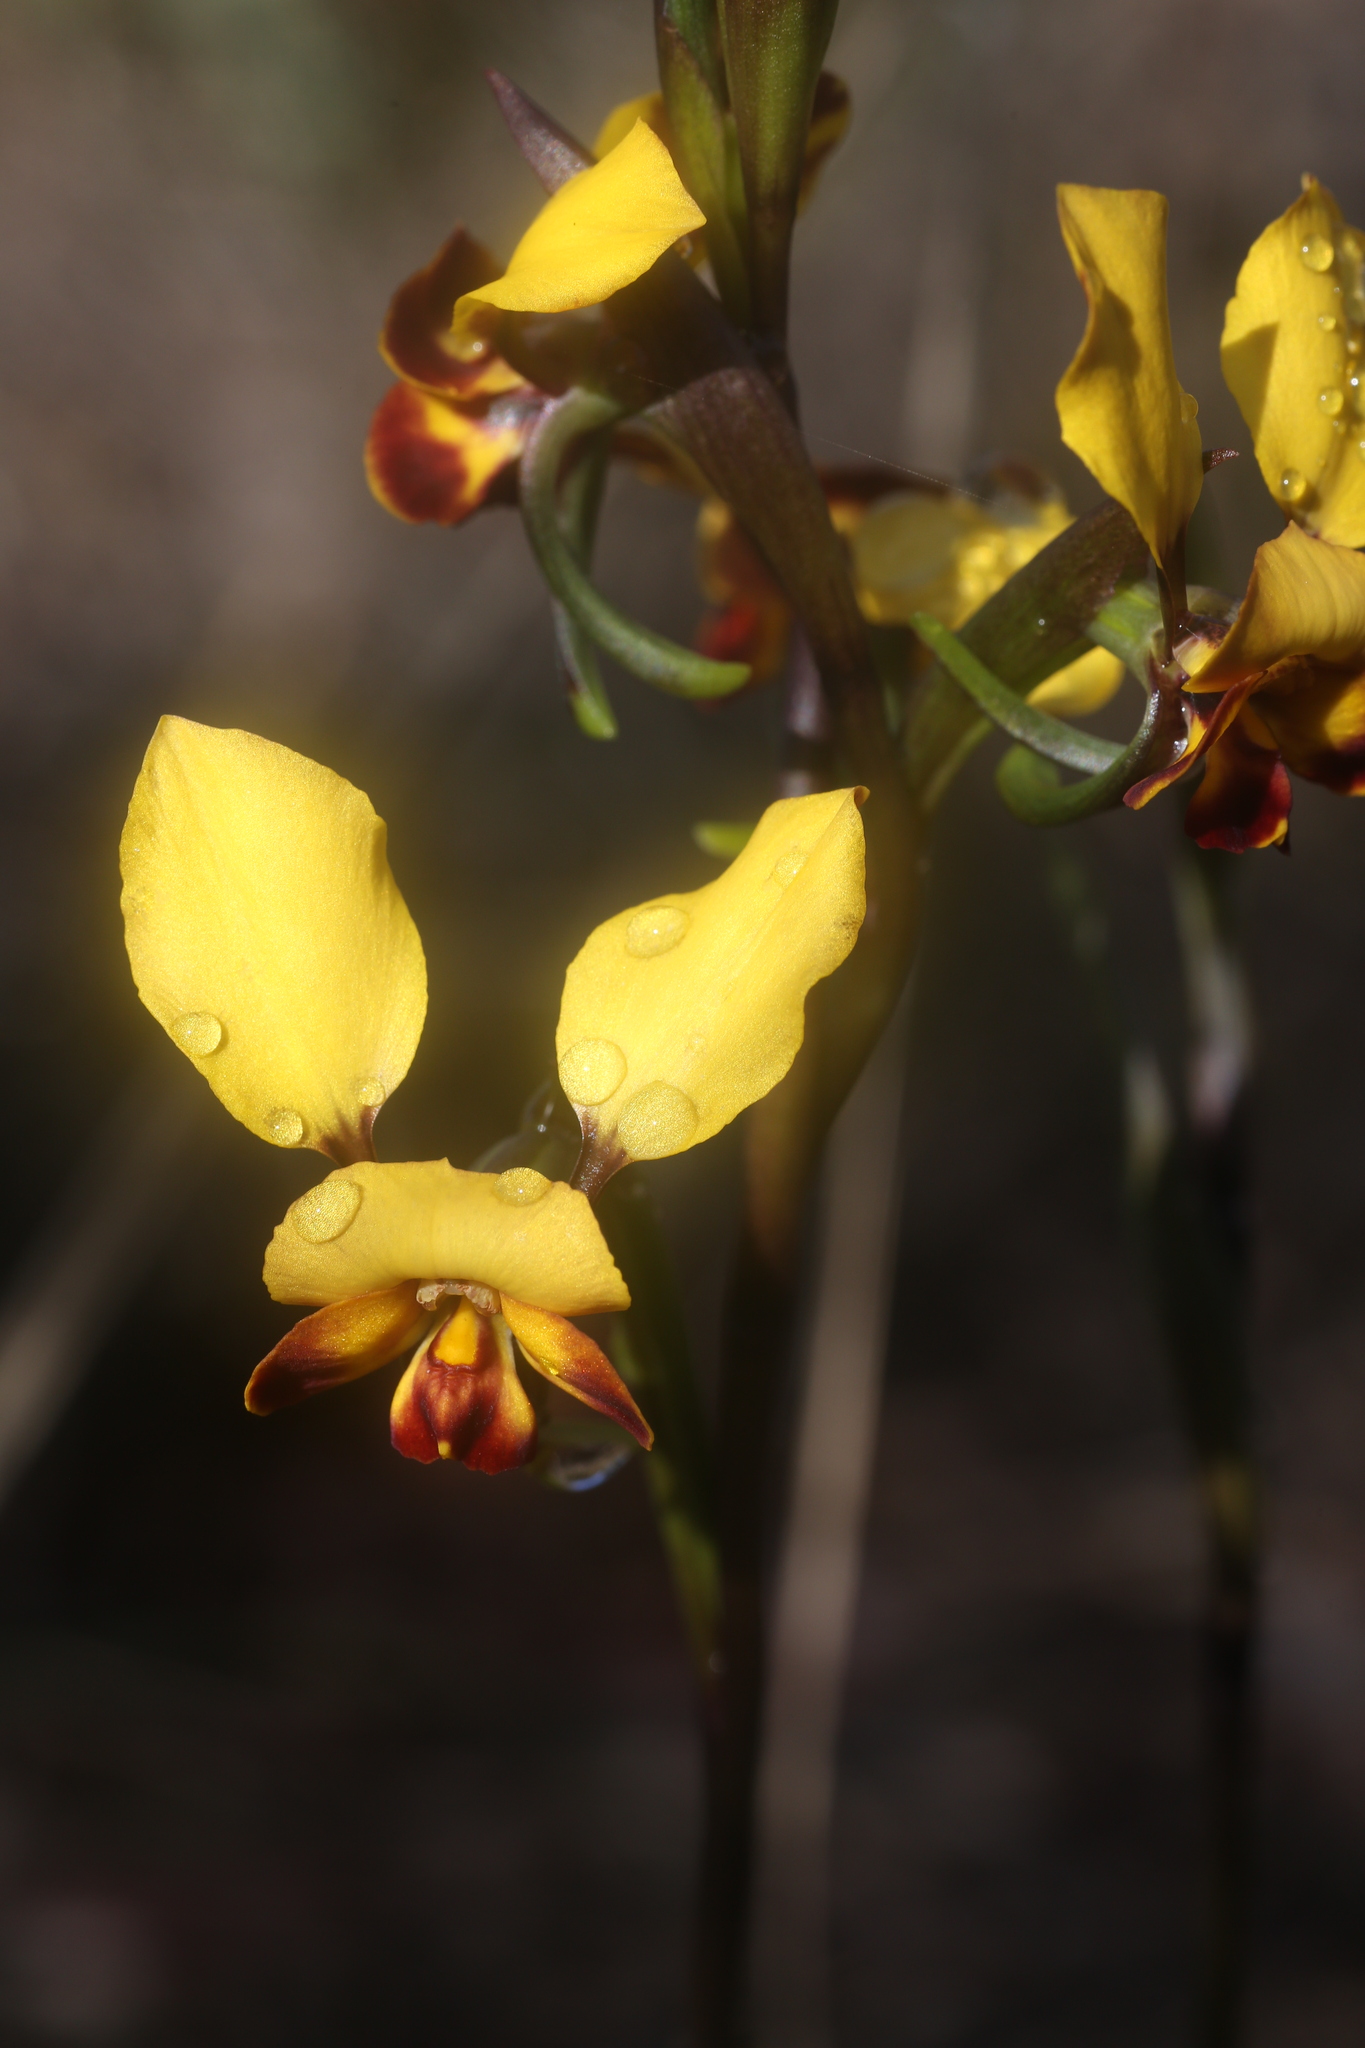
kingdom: Plantae
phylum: Tracheophyta
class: Liliopsida
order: Asparagales
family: Orchidaceae
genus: Diuris
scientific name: Diuris perialla
